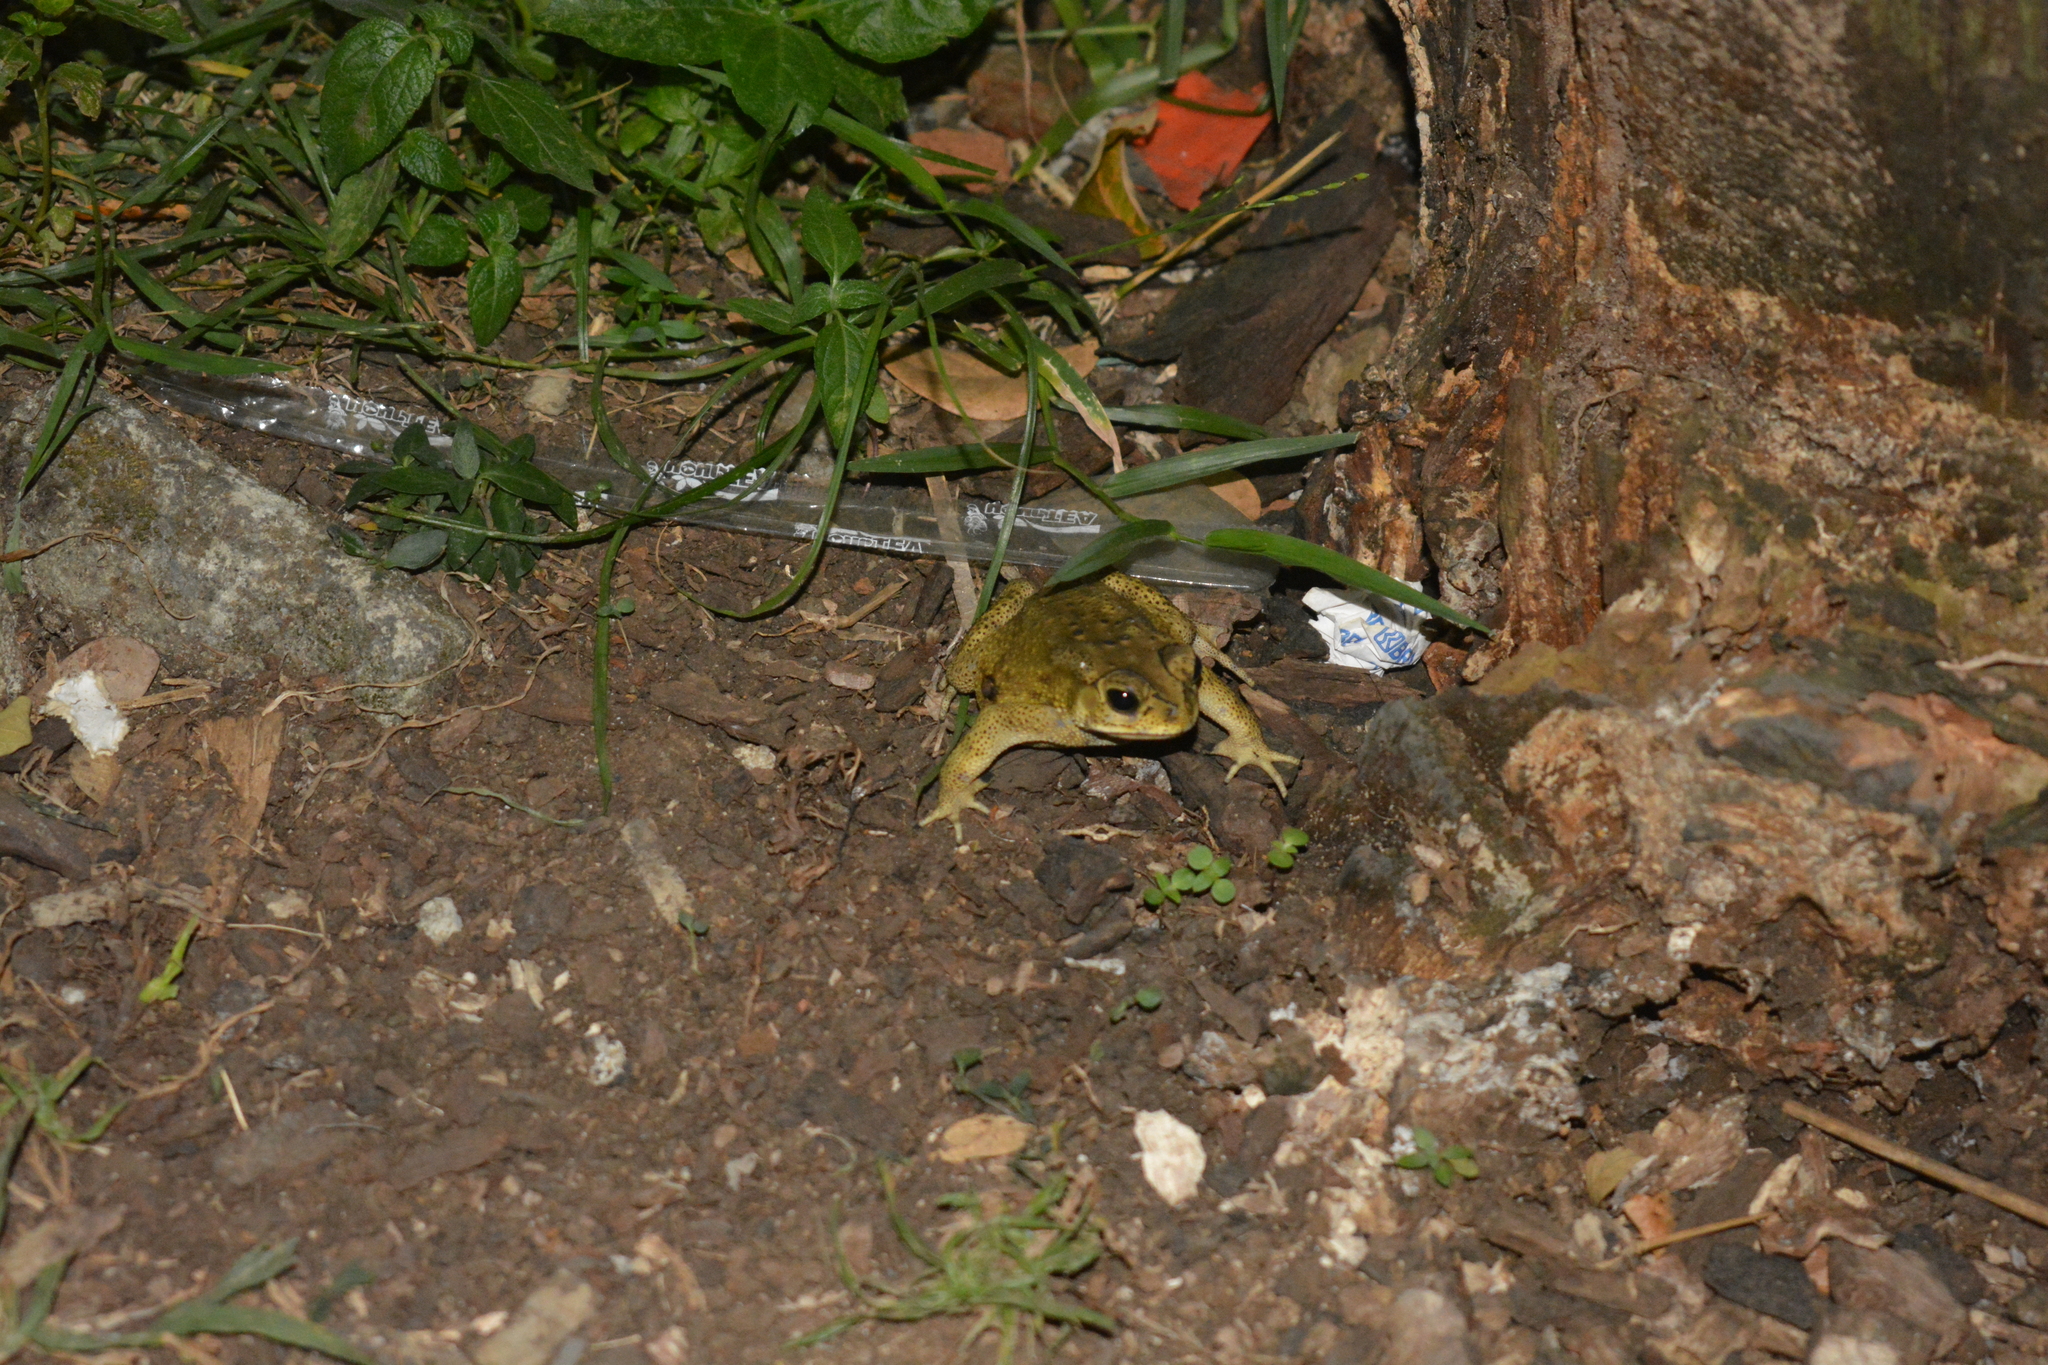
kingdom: Animalia
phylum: Chordata
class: Amphibia
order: Anura
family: Bufonidae
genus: Duttaphrynus
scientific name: Duttaphrynus melanostictus
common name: Common sunda toad
